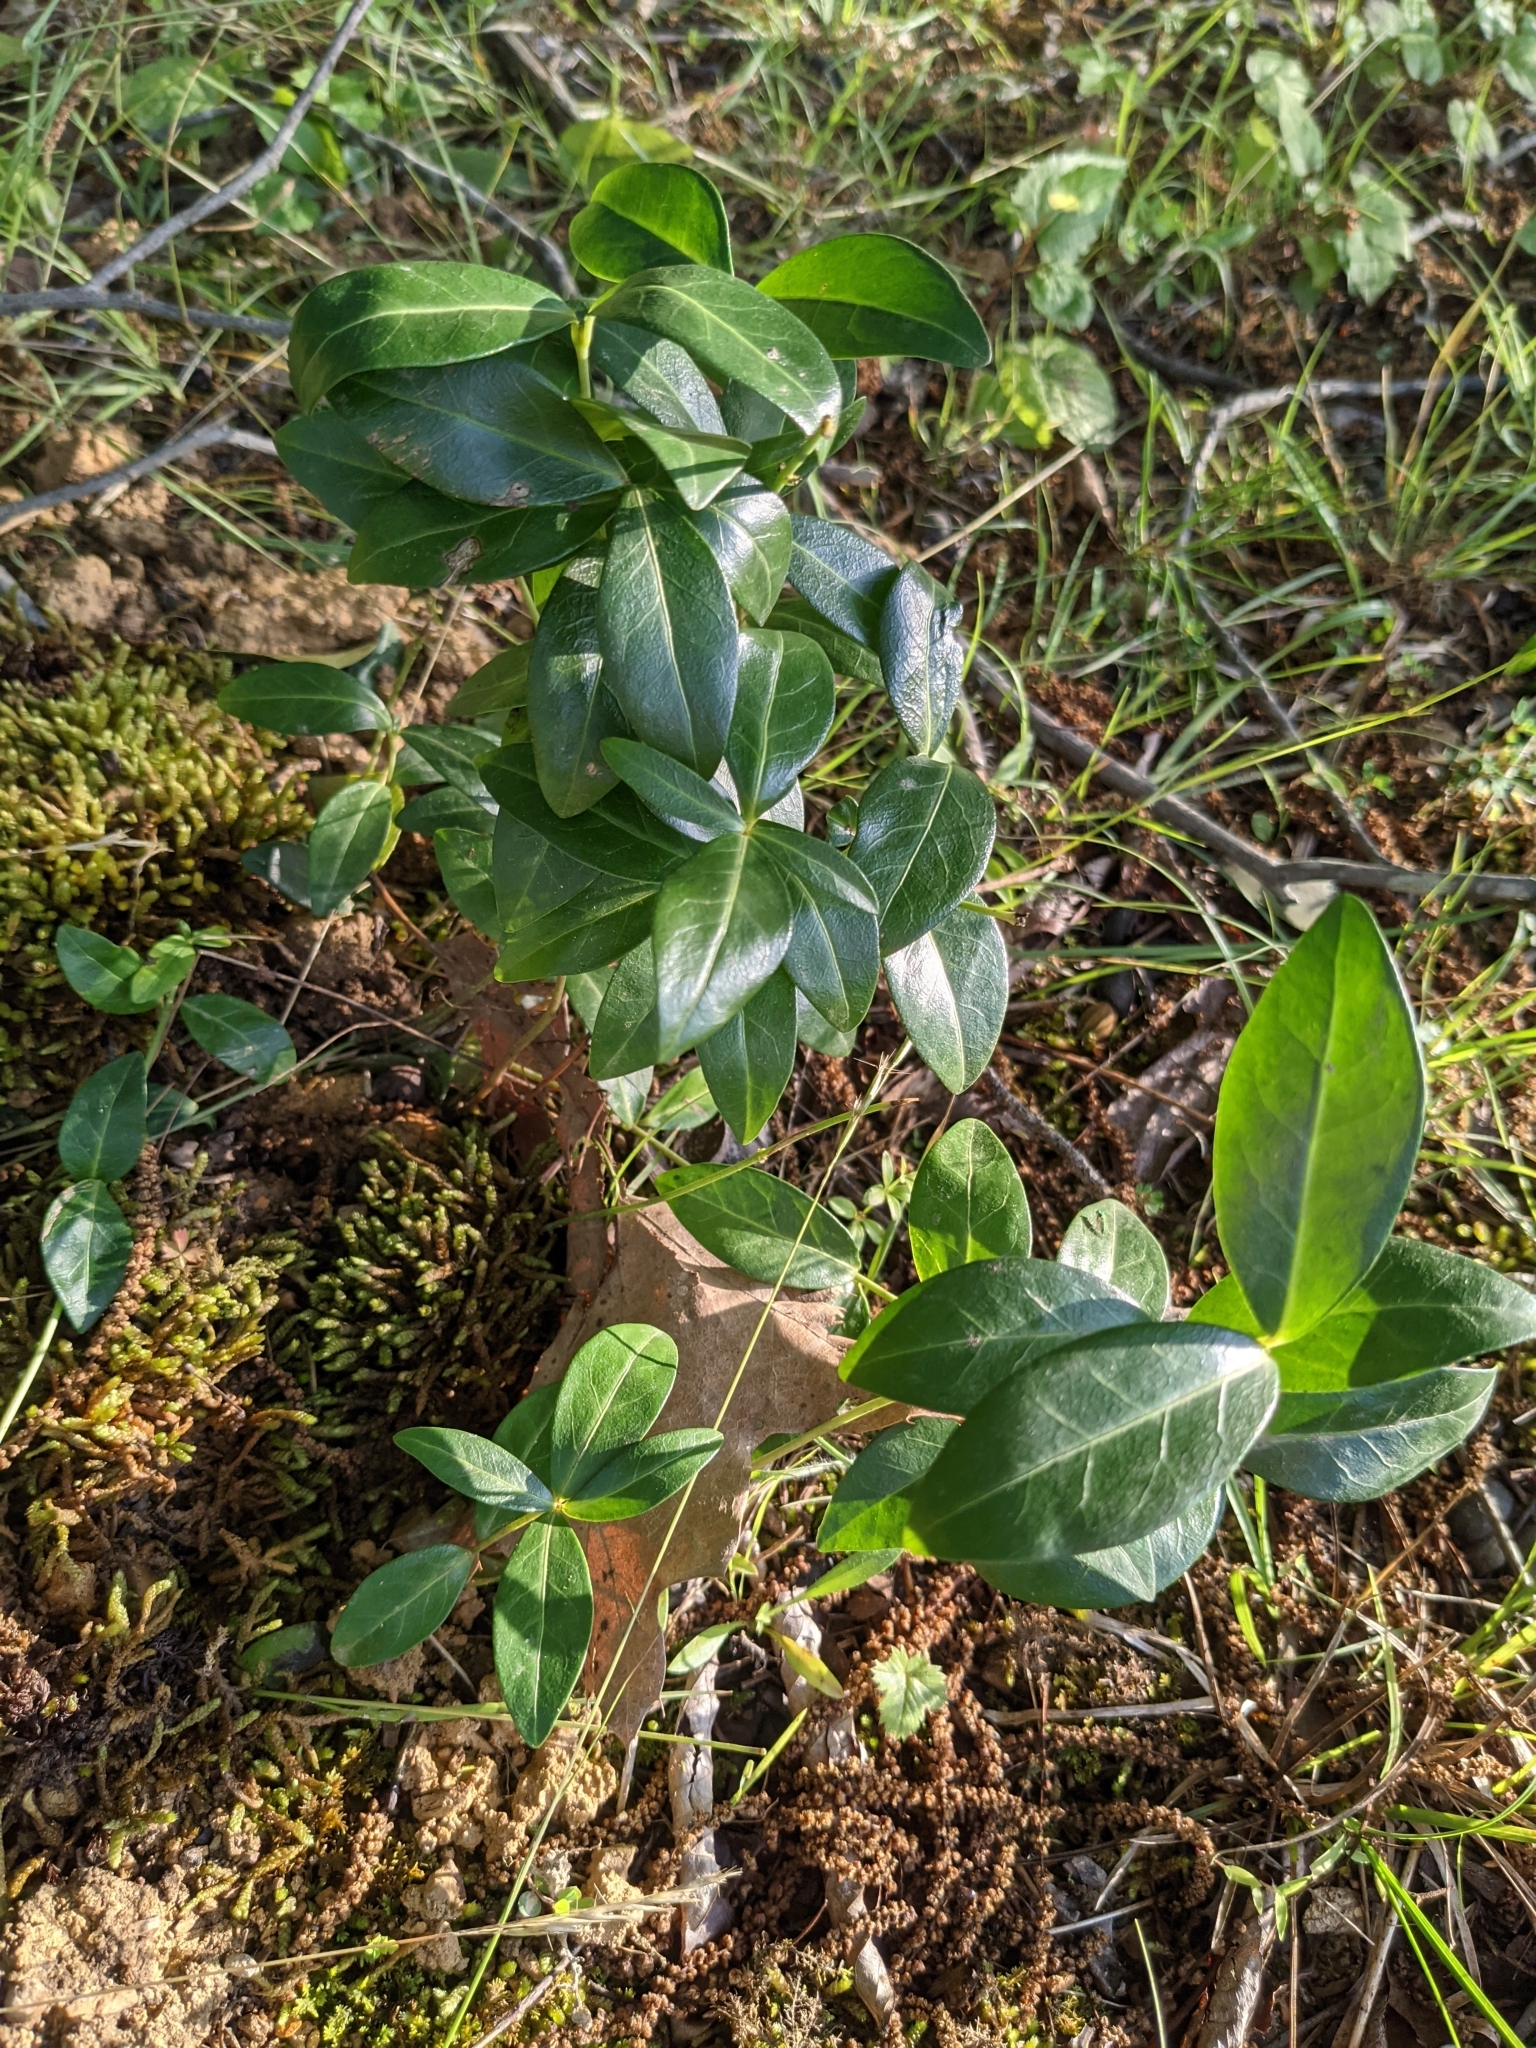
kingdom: Plantae
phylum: Tracheophyta
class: Magnoliopsida
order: Gentianales
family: Apocynaceae
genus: Vinca
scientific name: Vinca minor
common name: Lesser periwinkle
